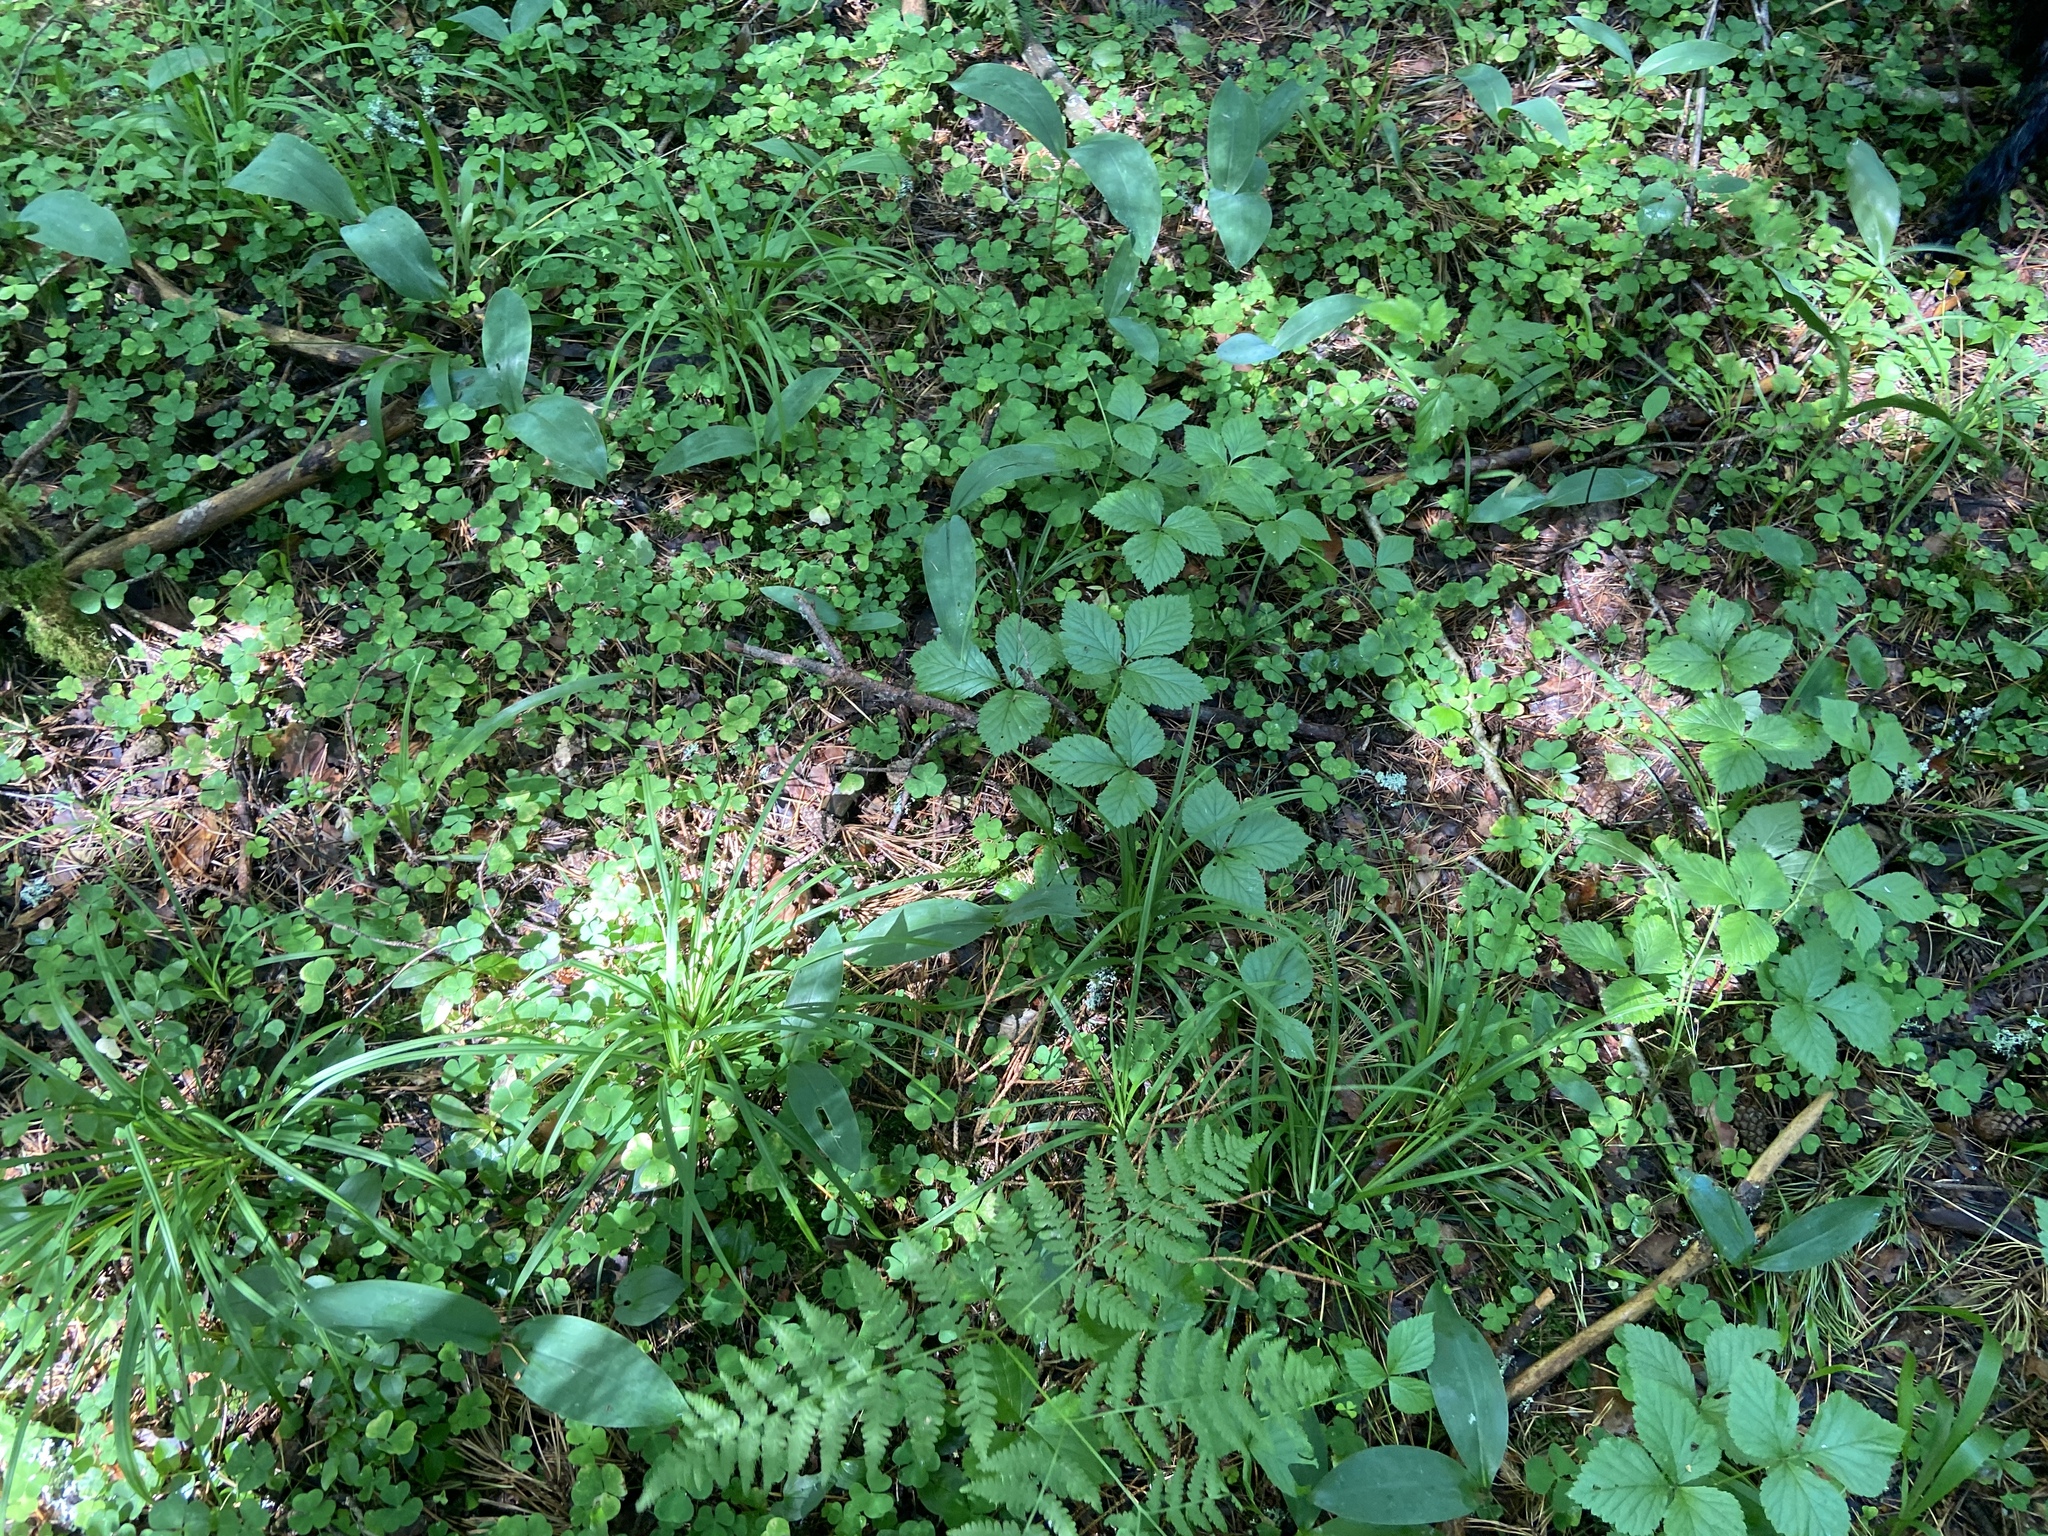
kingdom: Plantae
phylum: Tracheophyta
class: Magnoliopsida
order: Rosales
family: Rosaceae
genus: Rubus
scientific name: Rubus saxatilis
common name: Stone bramble
